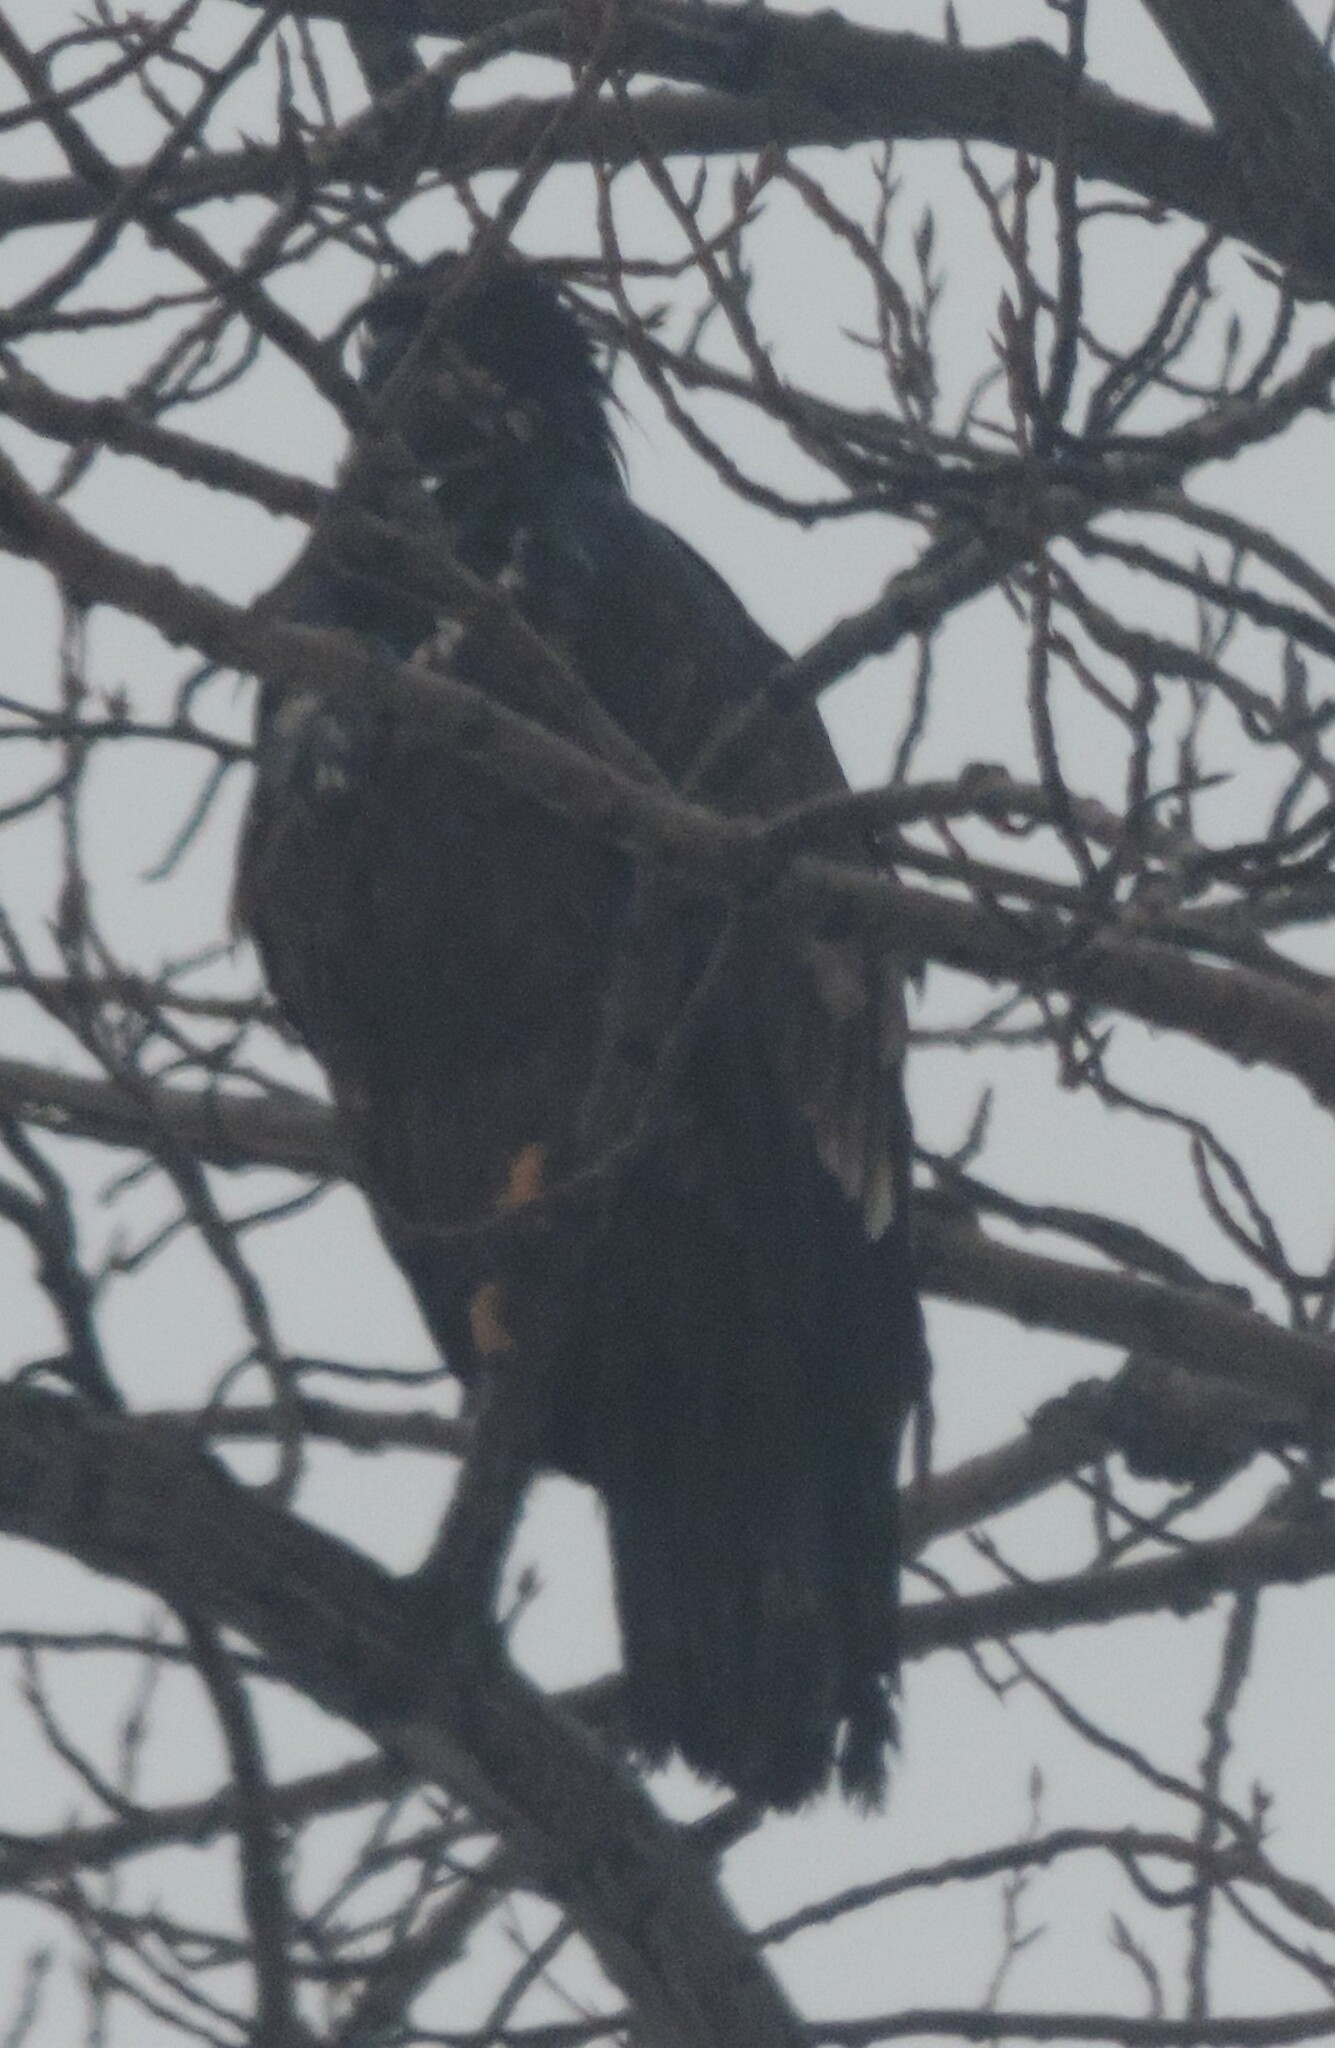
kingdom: Animalia
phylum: Chordata
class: Aves
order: Accipitriformes
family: Accipitridae
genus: Haliaeetus
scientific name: Haliaeetus leucocephalus
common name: Bald eagle
